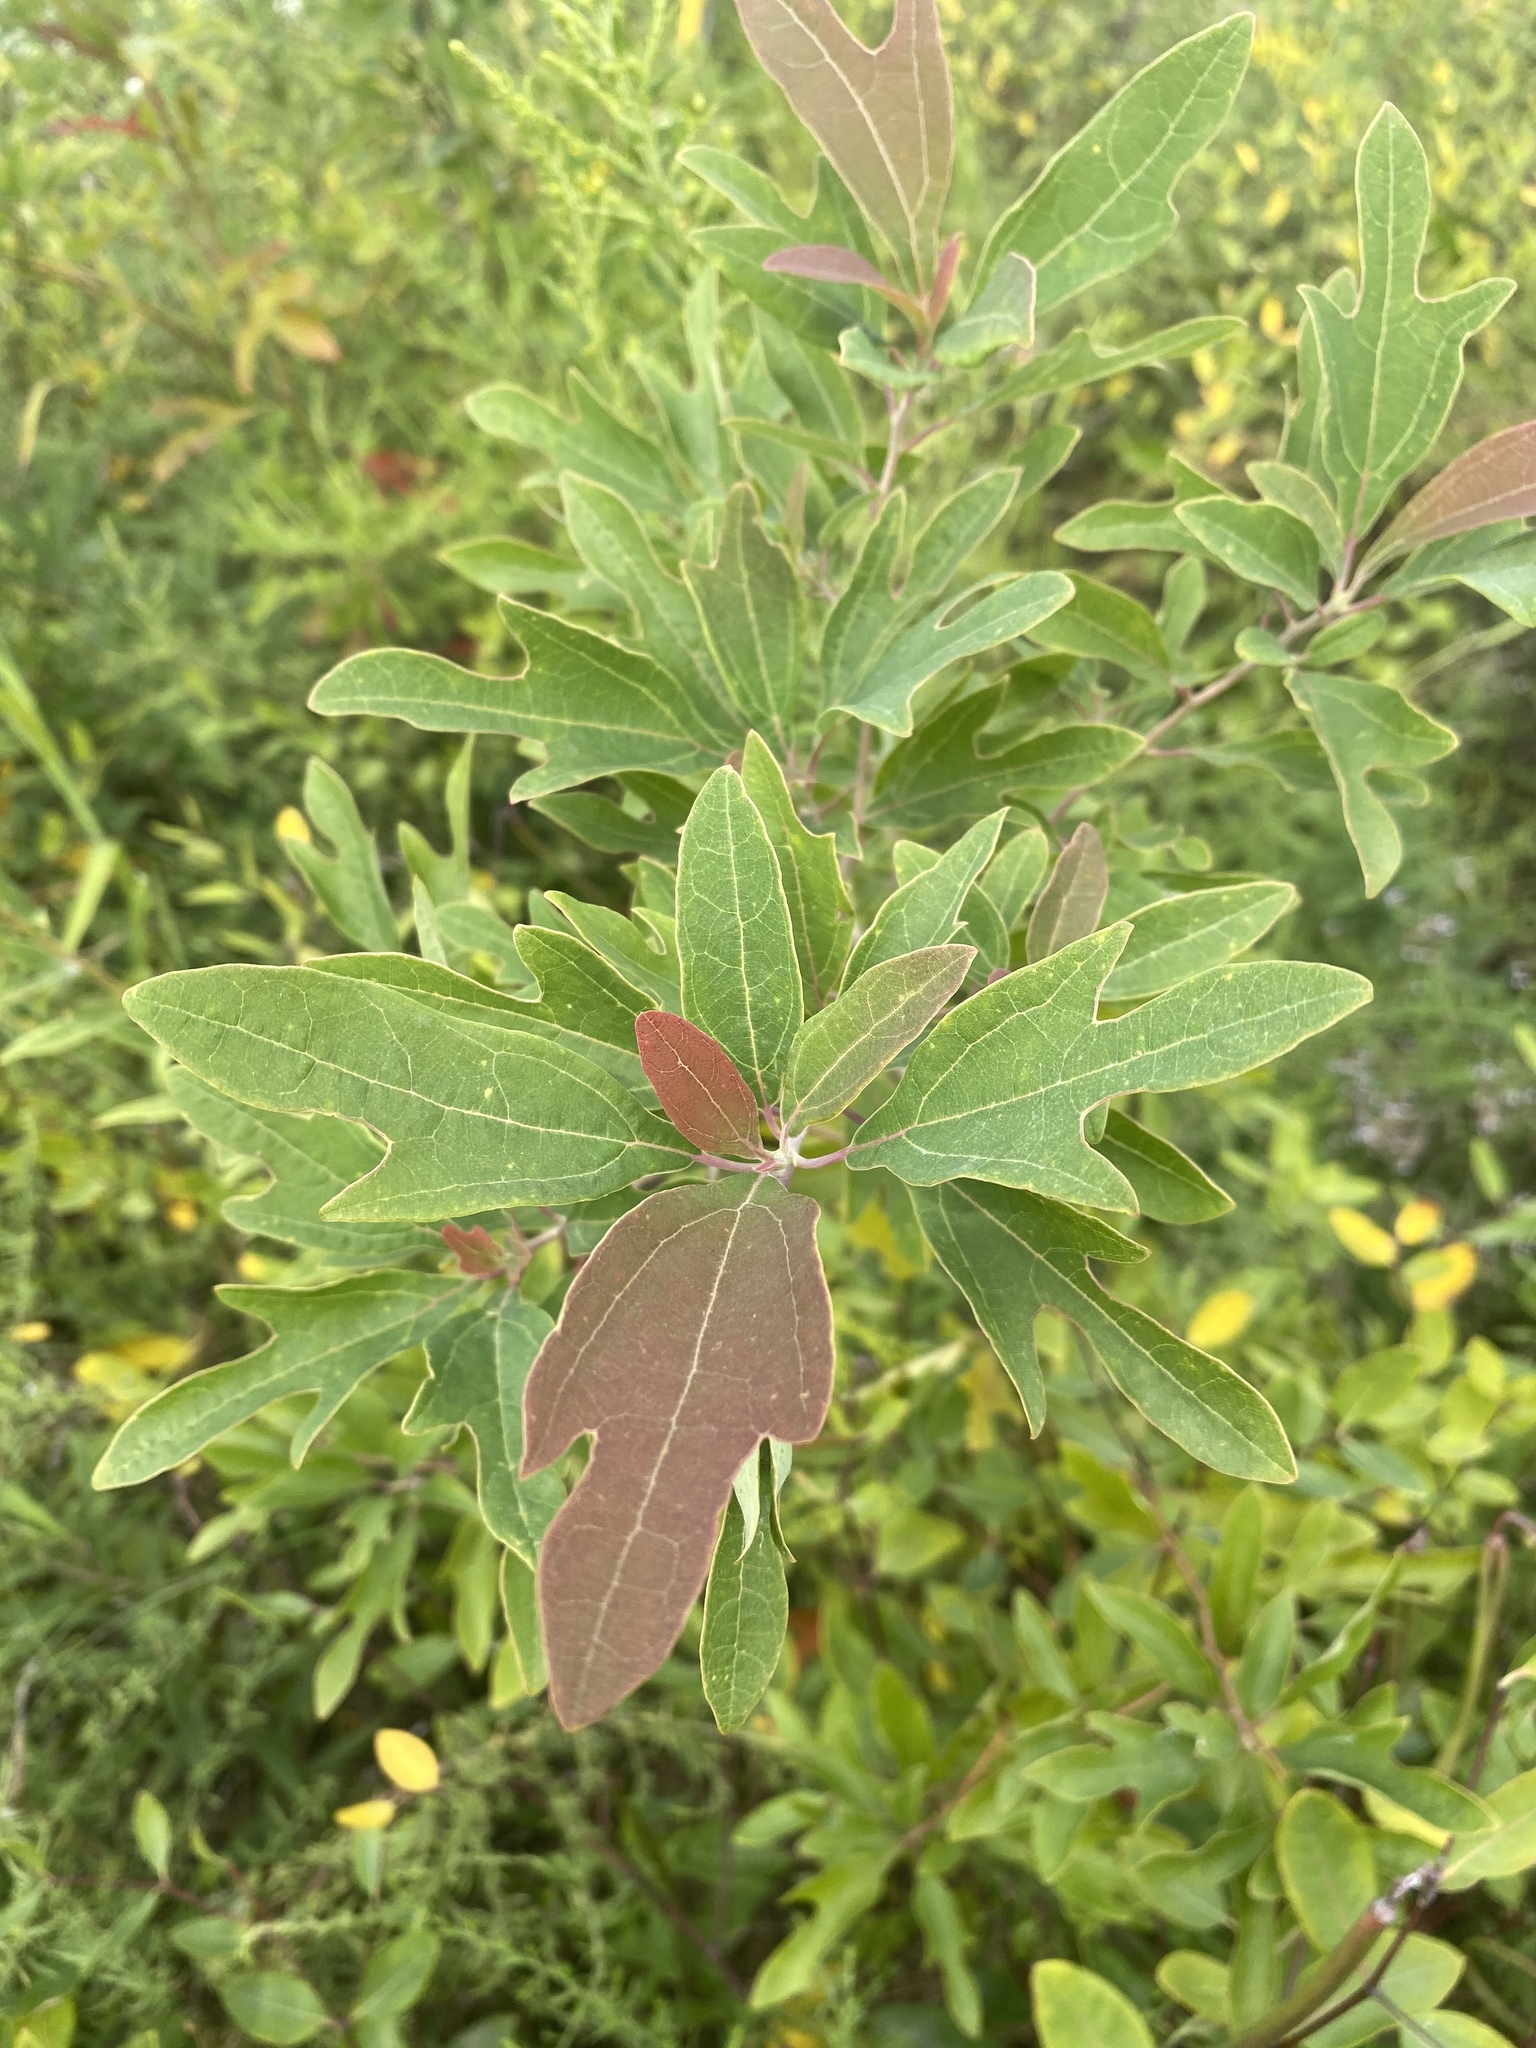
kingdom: Plantae
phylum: Tracheophyta
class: Magnoliopsida
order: Laurales
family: Lauraceae
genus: Sassafras
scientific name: Sassafras albidum
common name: Sassafras
